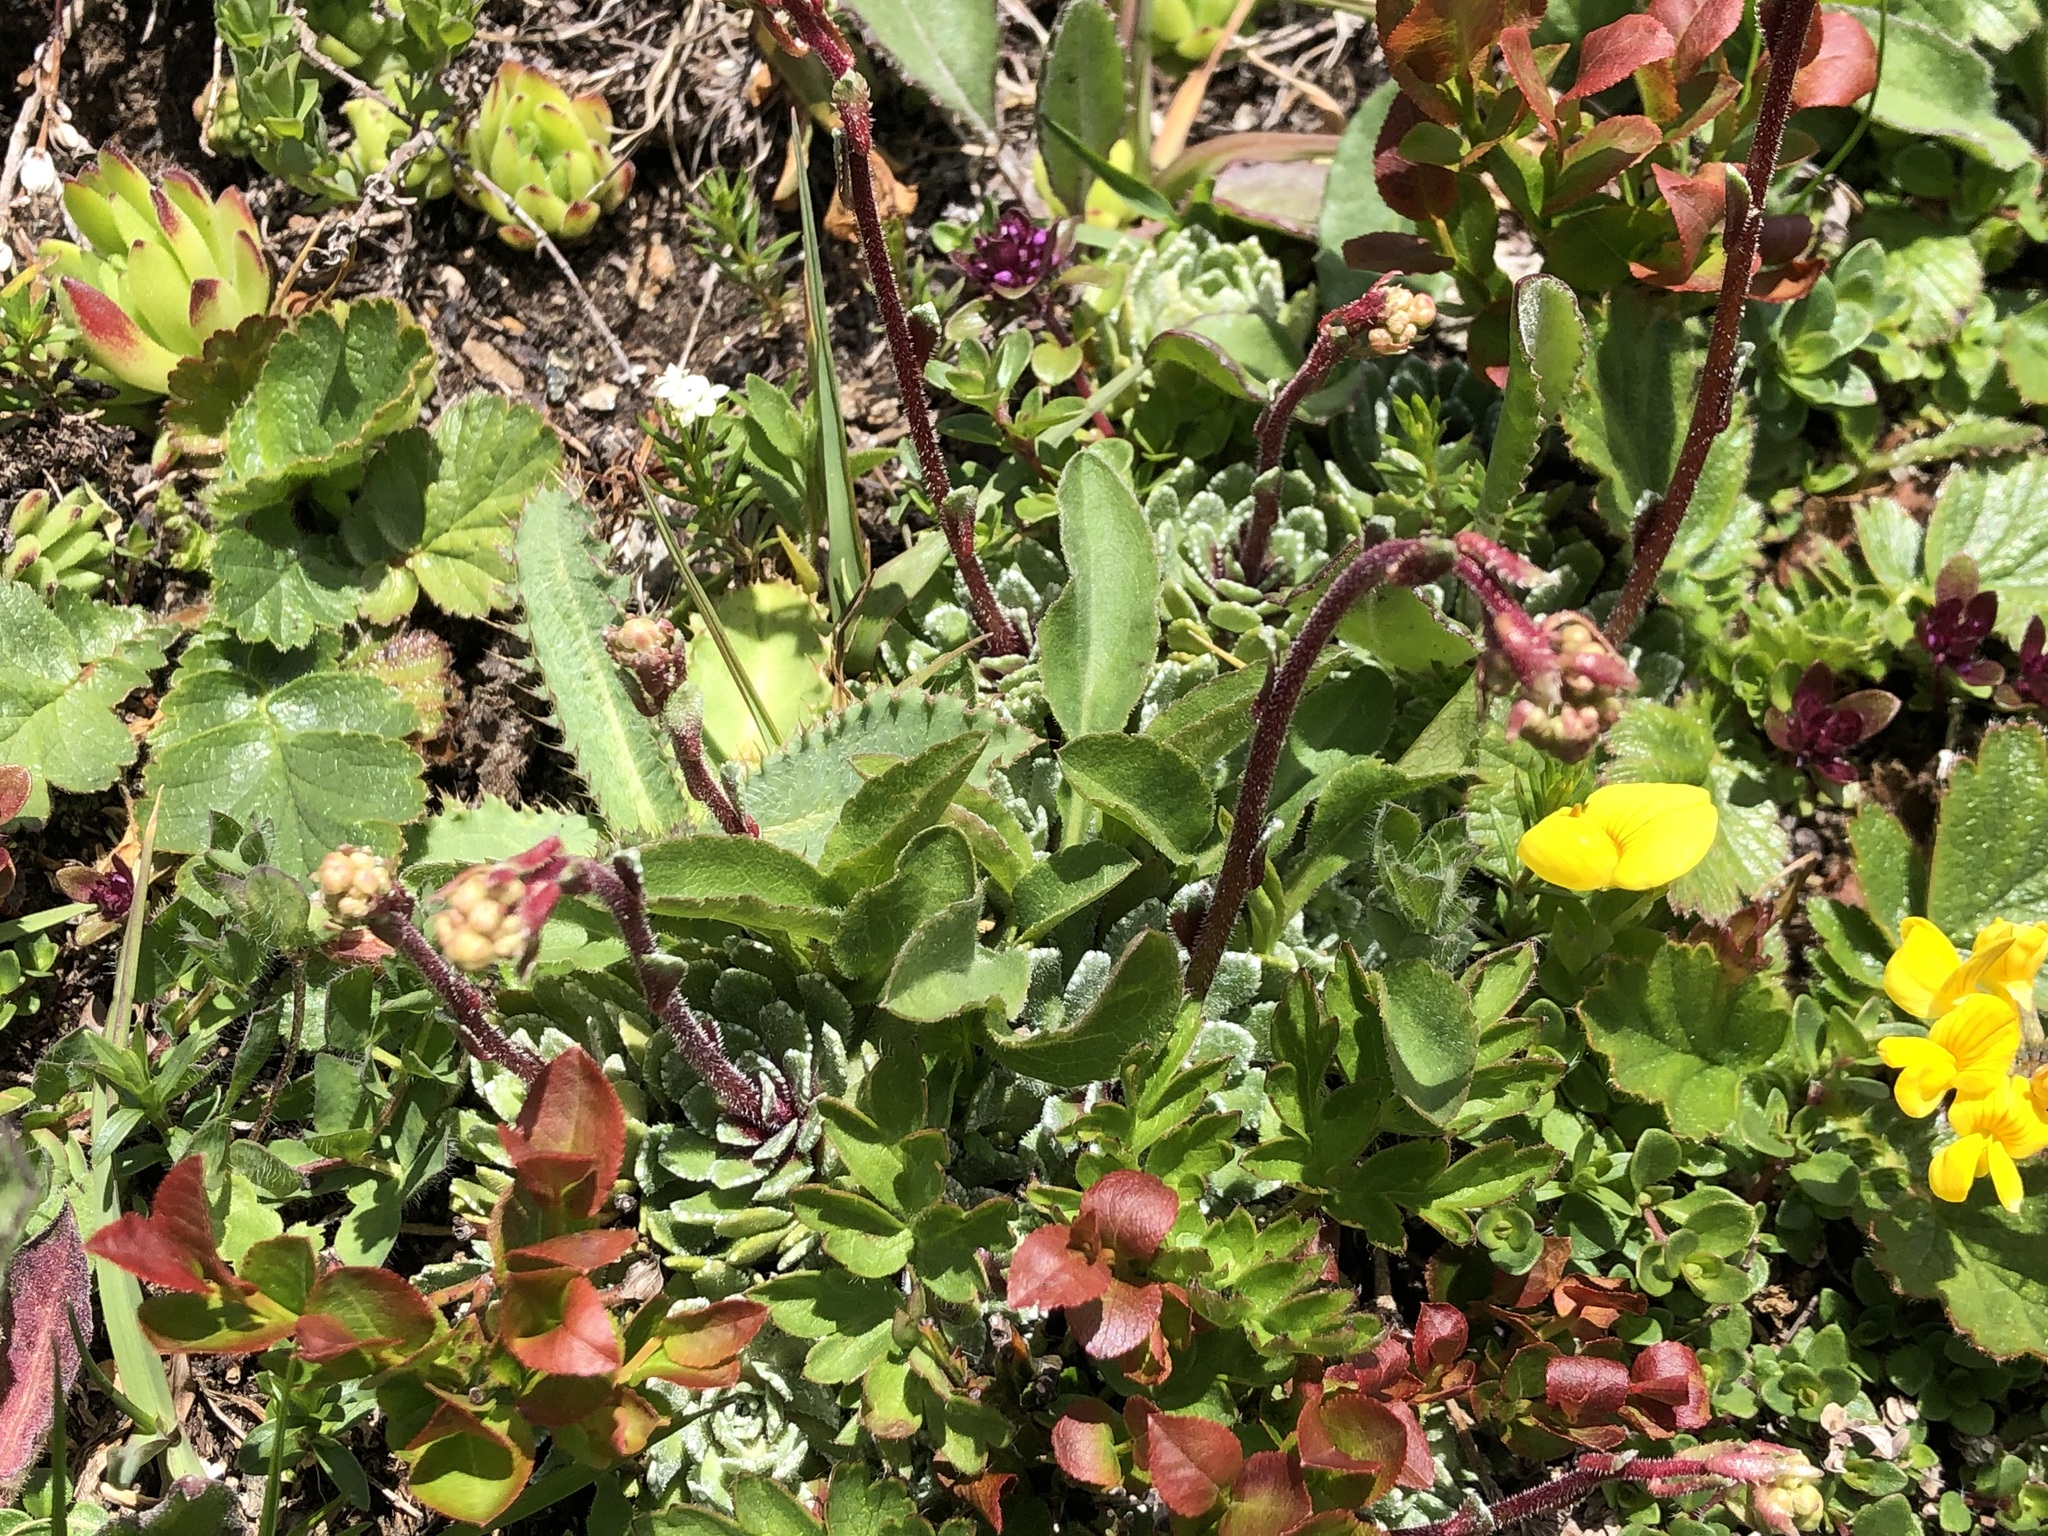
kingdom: Plantae
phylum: Tracheophyta
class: Magnoliopsida
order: Saxifragales
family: Saxifragaceae
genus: Saxifraga
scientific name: Saxifraga paniculata
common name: Livelong saxifrage
